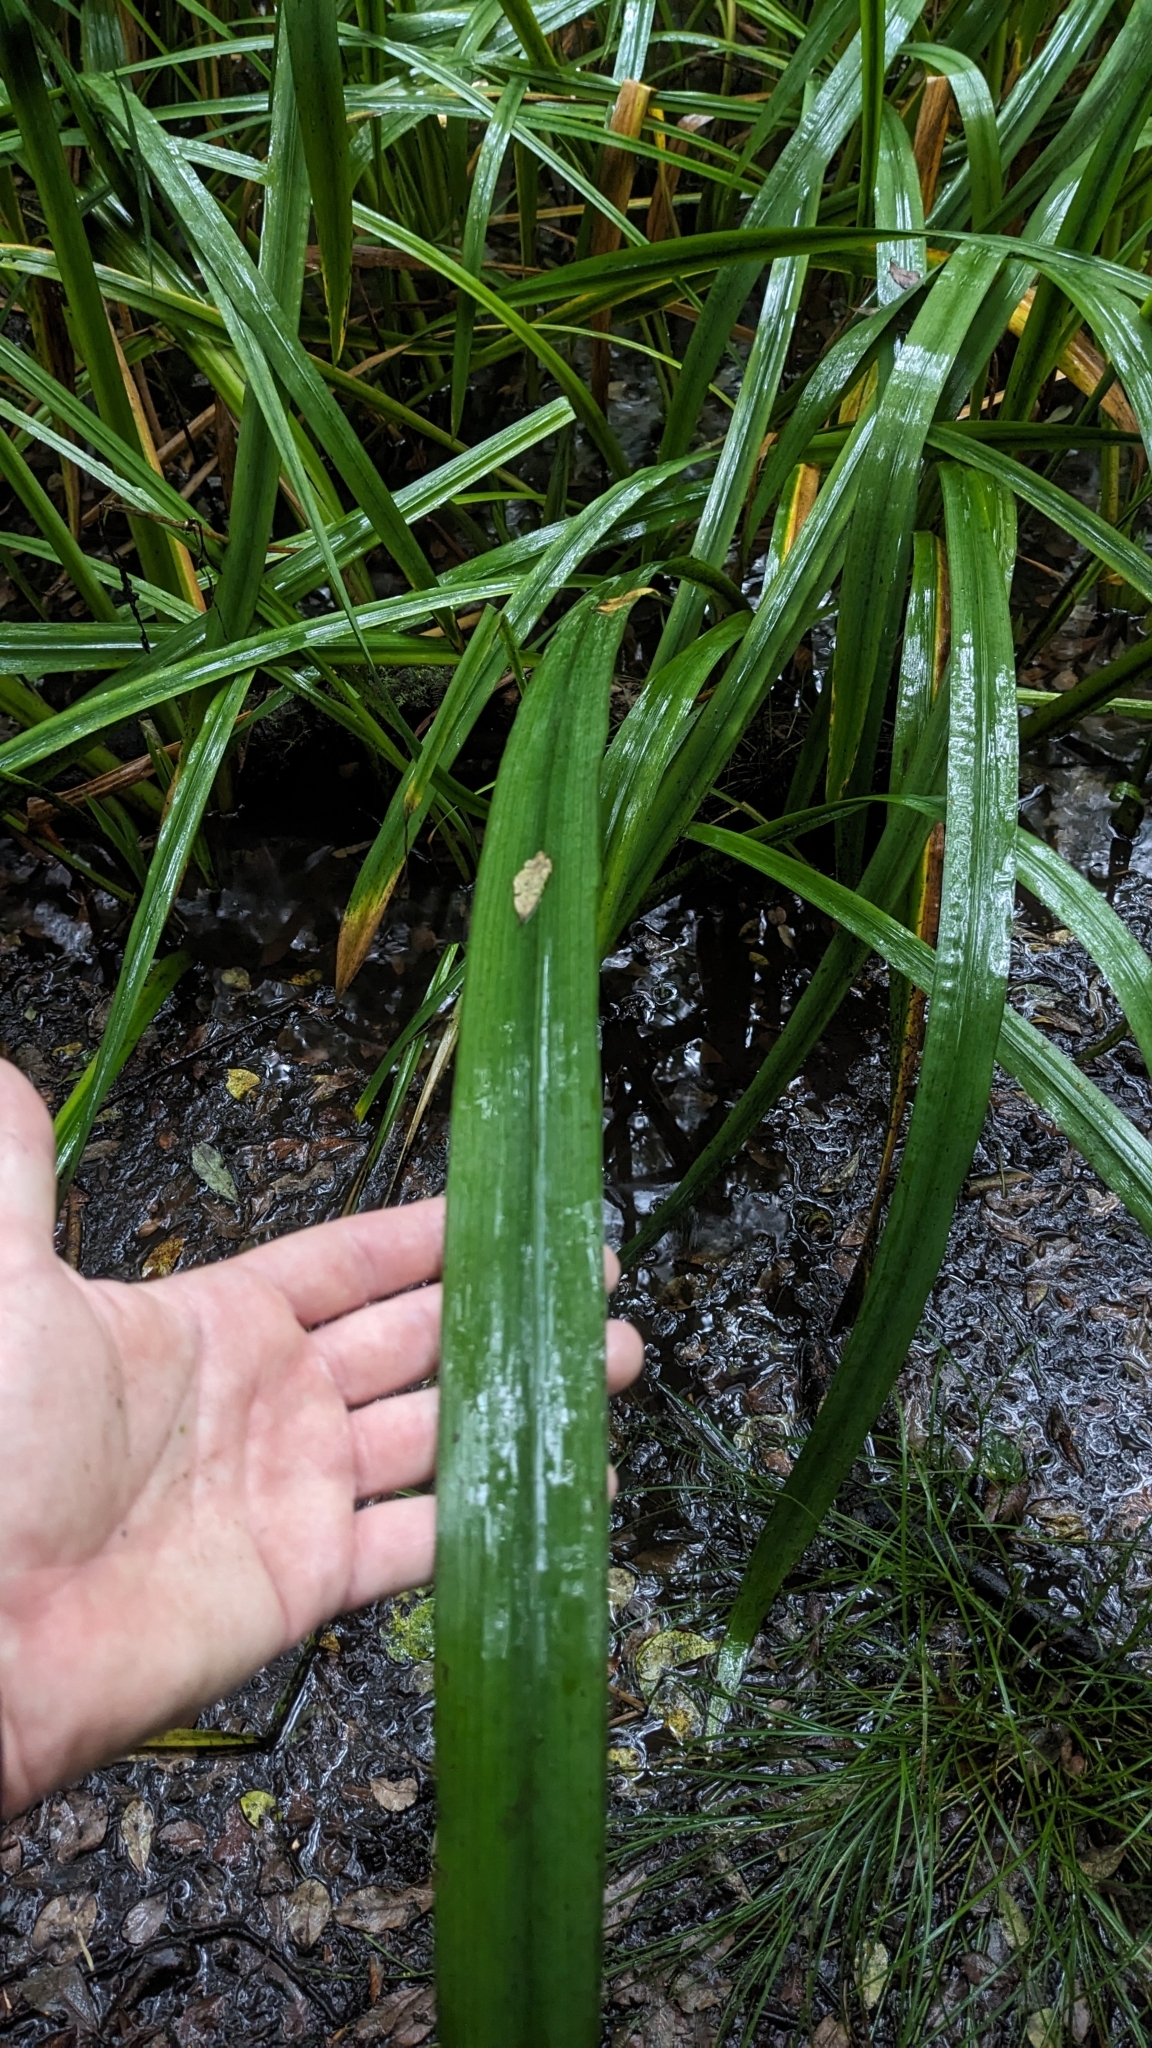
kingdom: Plantae
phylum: Tracheophyta
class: Liliopsida
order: Asparagales
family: Iridaceae
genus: Iris
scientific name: Iris pseudacorus
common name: Yellow flag
